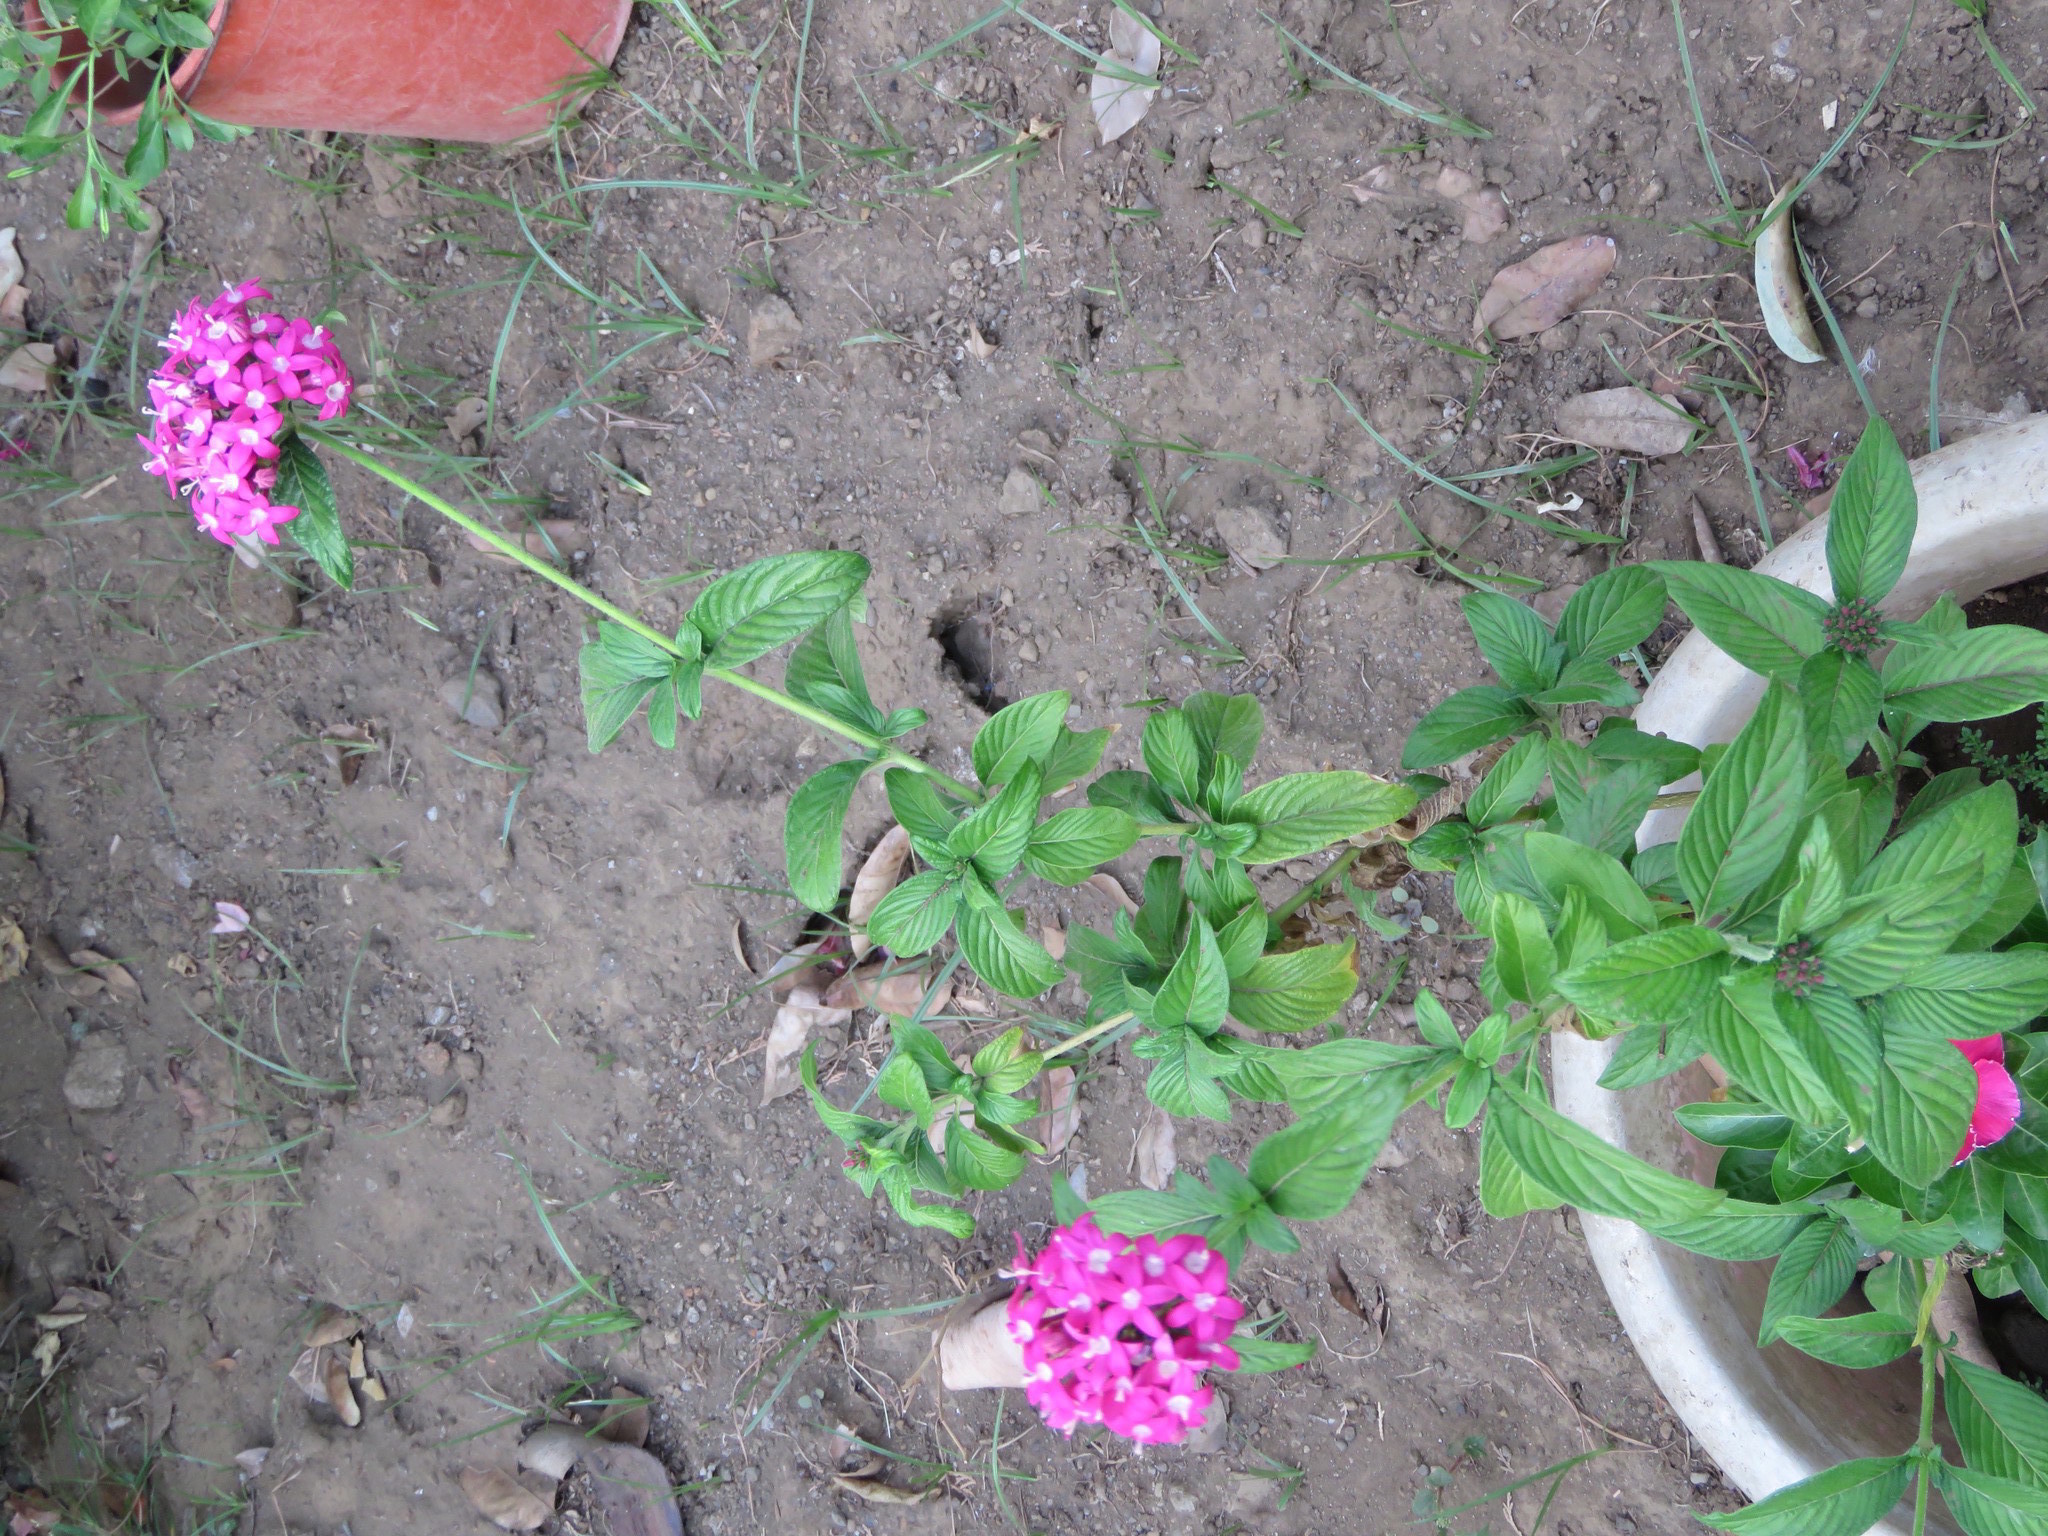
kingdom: Plantae
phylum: Tracheophyta
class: Magnoliopsida
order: Gentianales
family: Rubiaceae
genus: Pentas
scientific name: Pentas lanceolata
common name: Egyptian starcluster
